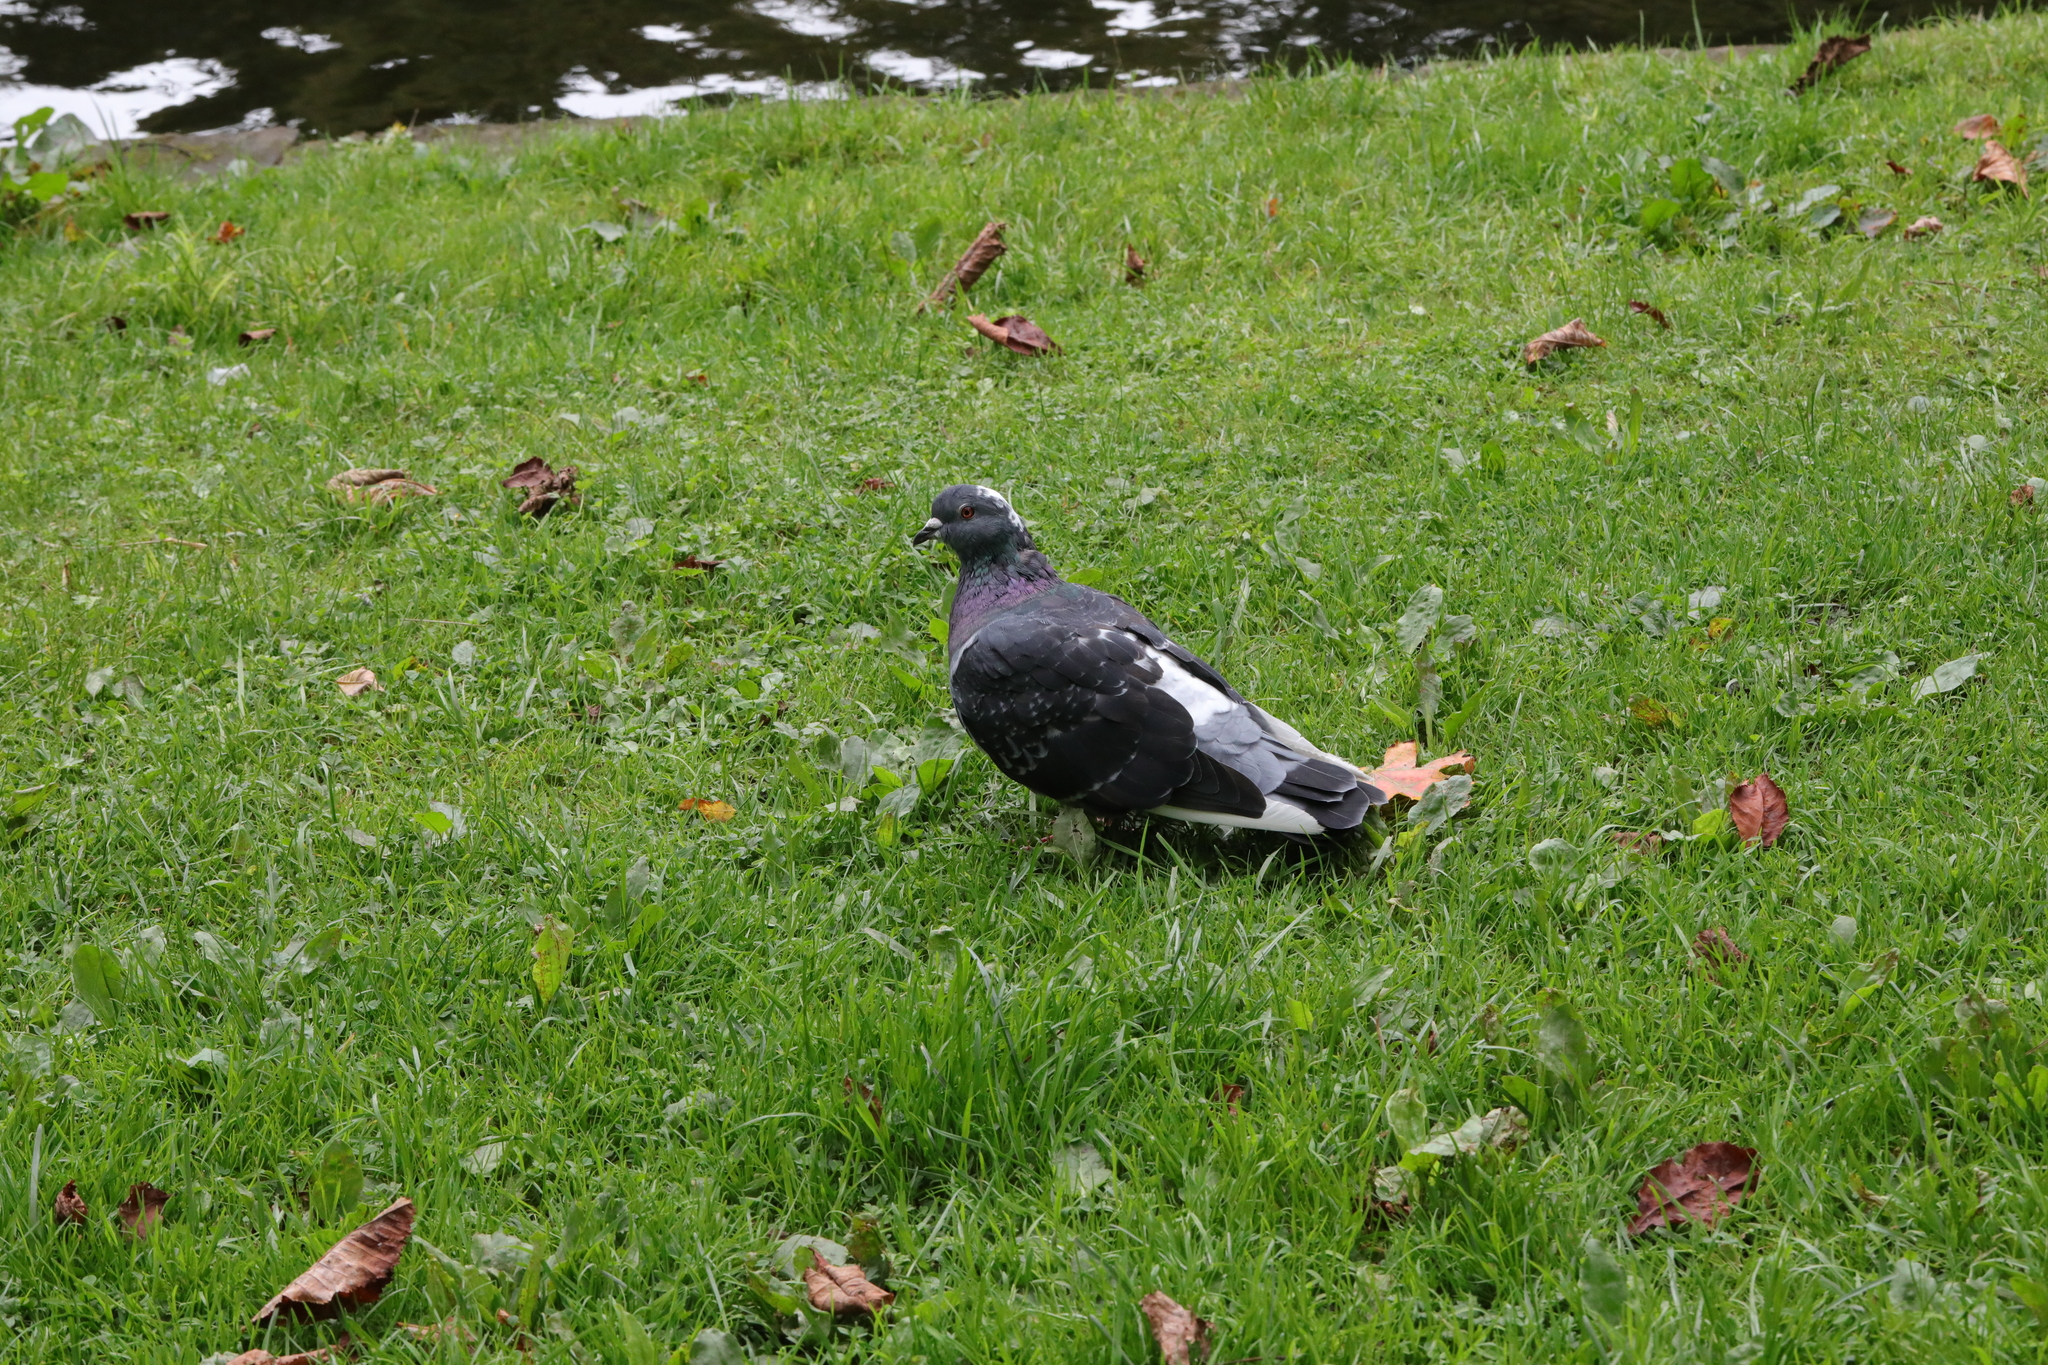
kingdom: Animalia
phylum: Chordata
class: Aves
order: Columbiformes
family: Columbidae
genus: Columba
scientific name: Columba livia
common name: Rock pigeon
